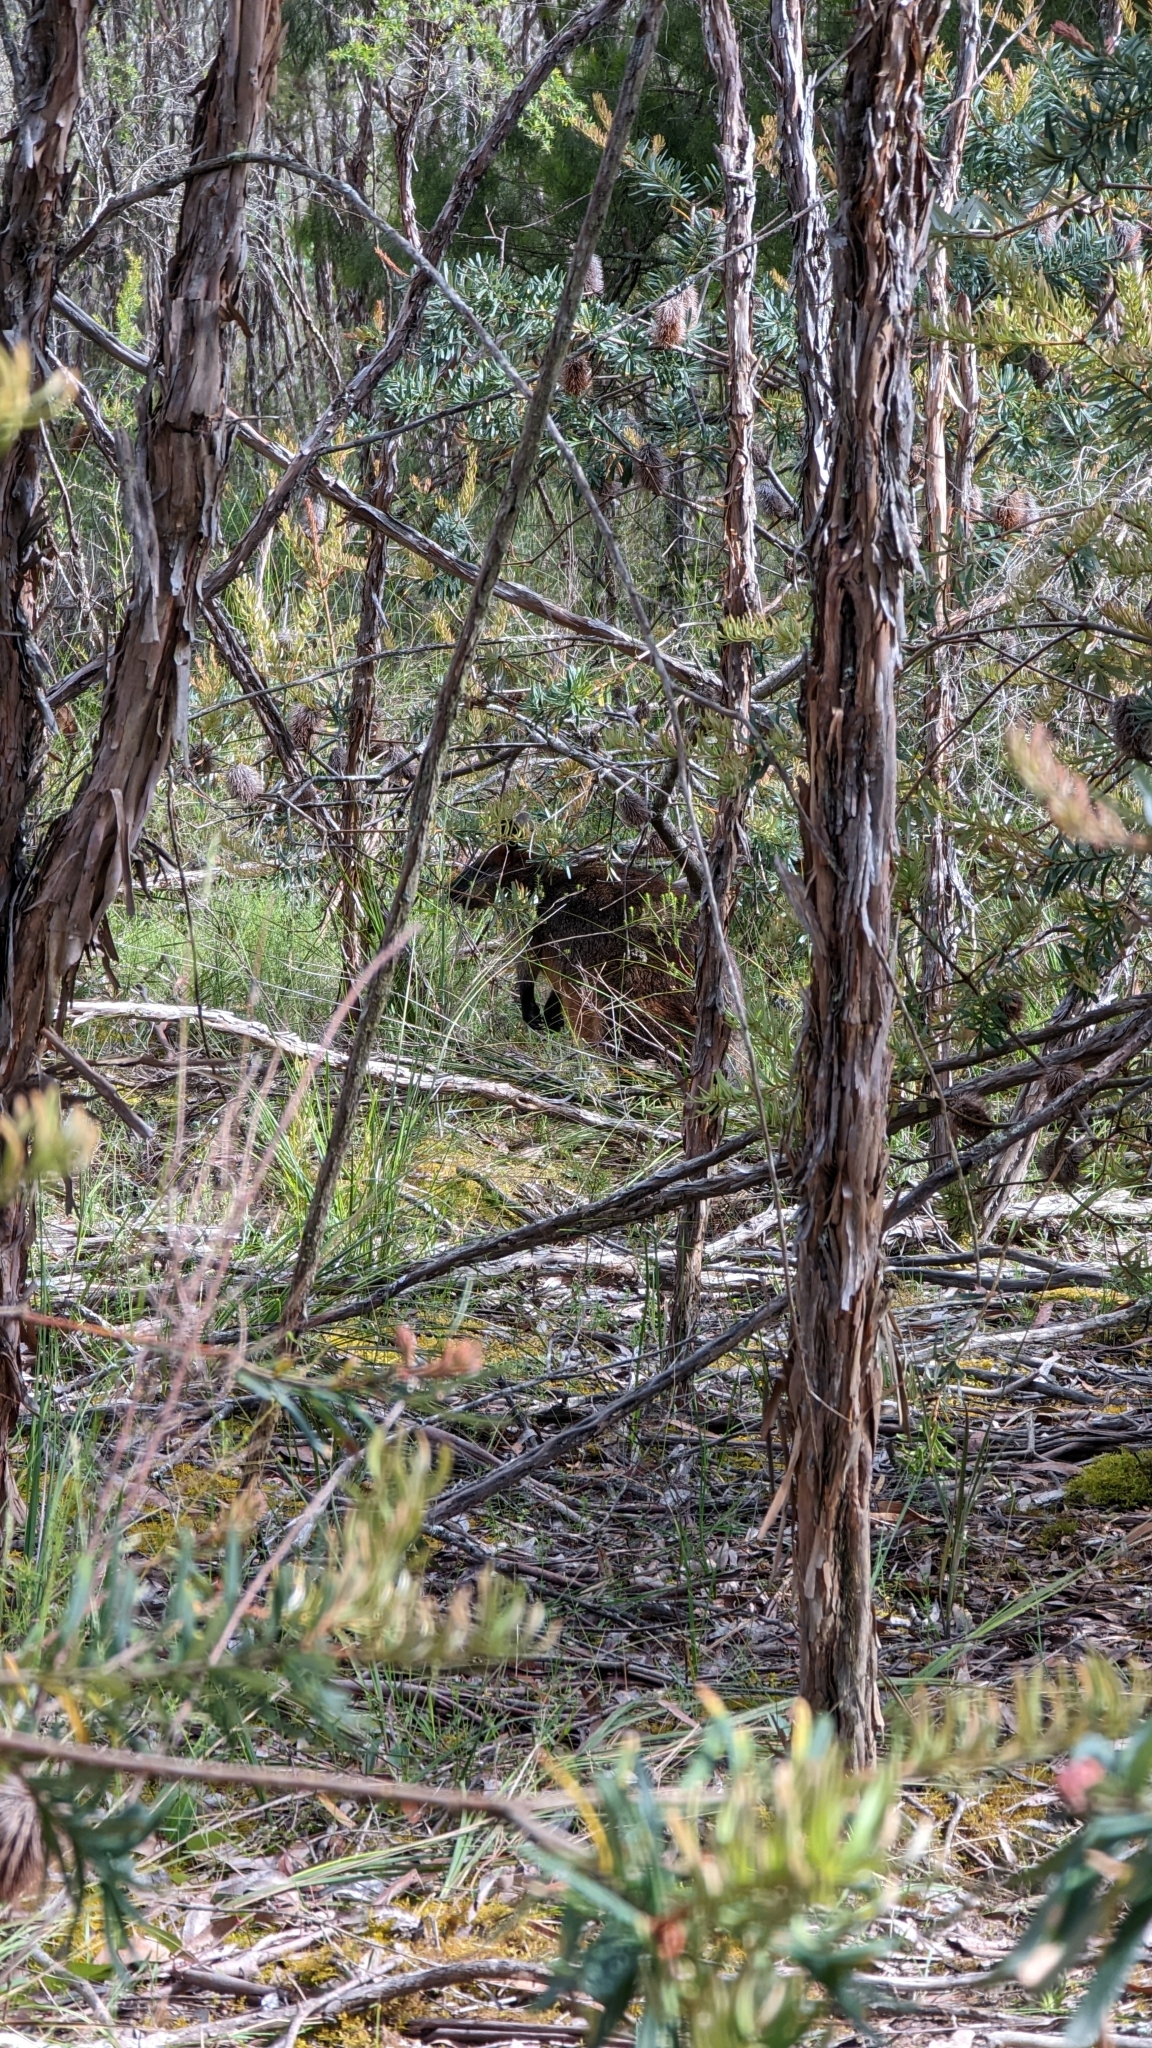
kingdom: Animalia
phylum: Chordata
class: Mammalia
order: Diprotodontia
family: Macropodidae
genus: Wallabia
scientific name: Wallabia bicolor
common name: Swamp wallaby
